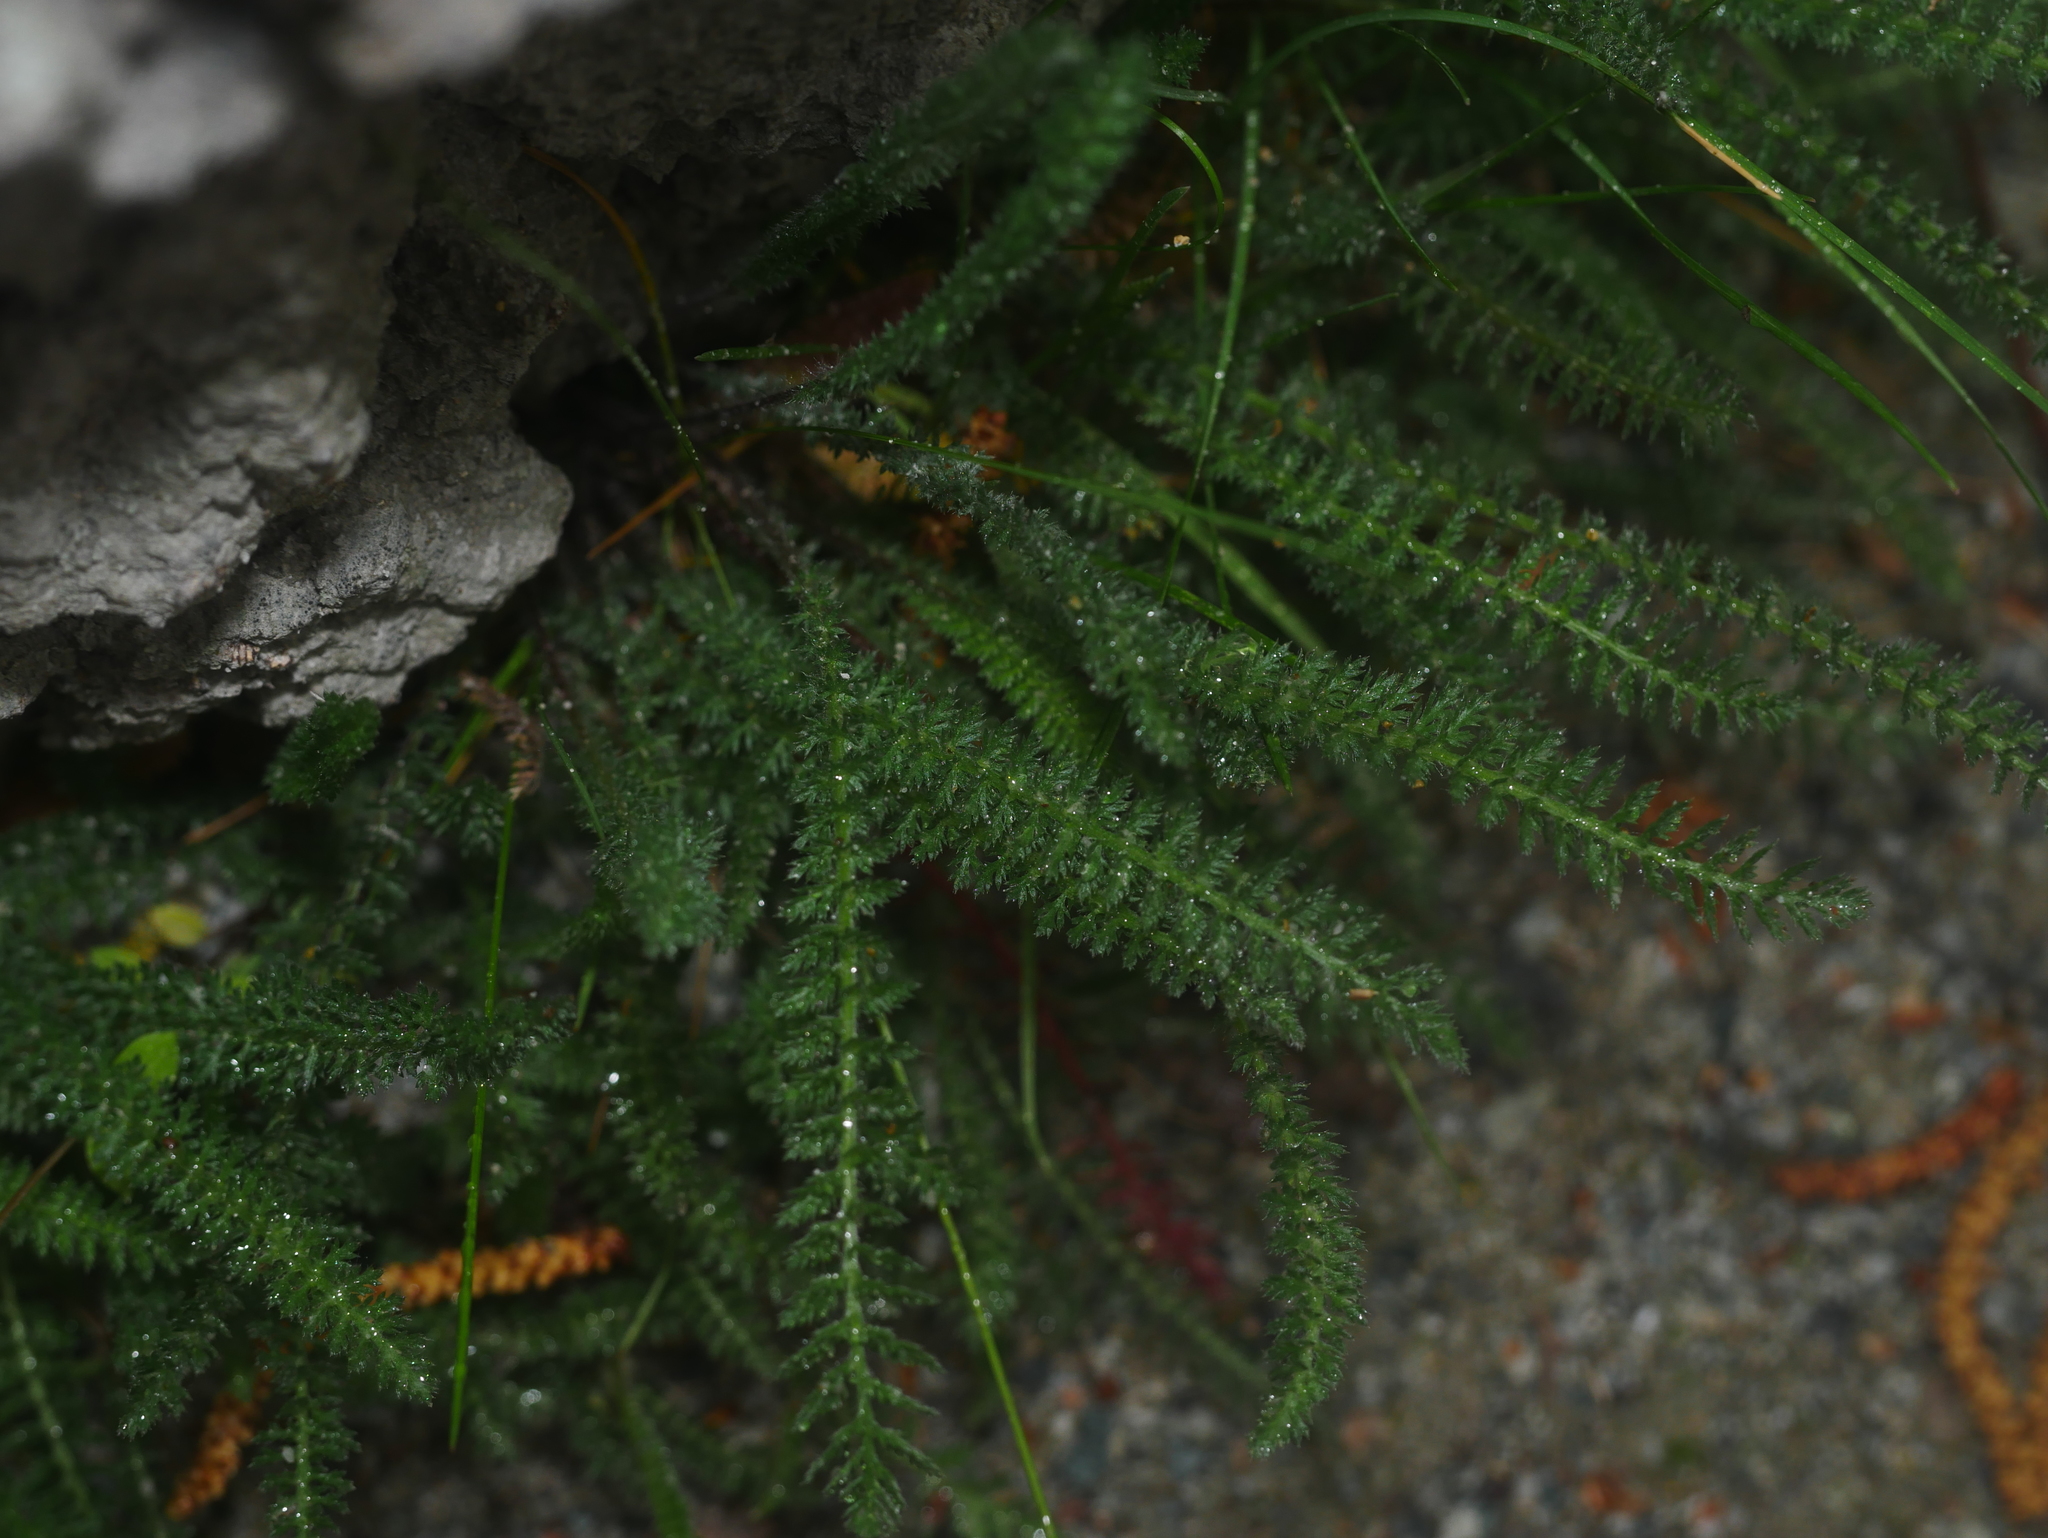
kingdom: Plantae
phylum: Tracheophyta
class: Magnoliopsida
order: Asterales
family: Asteraceae
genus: Achillea
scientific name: Achillea millefolium
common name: Yarrow
